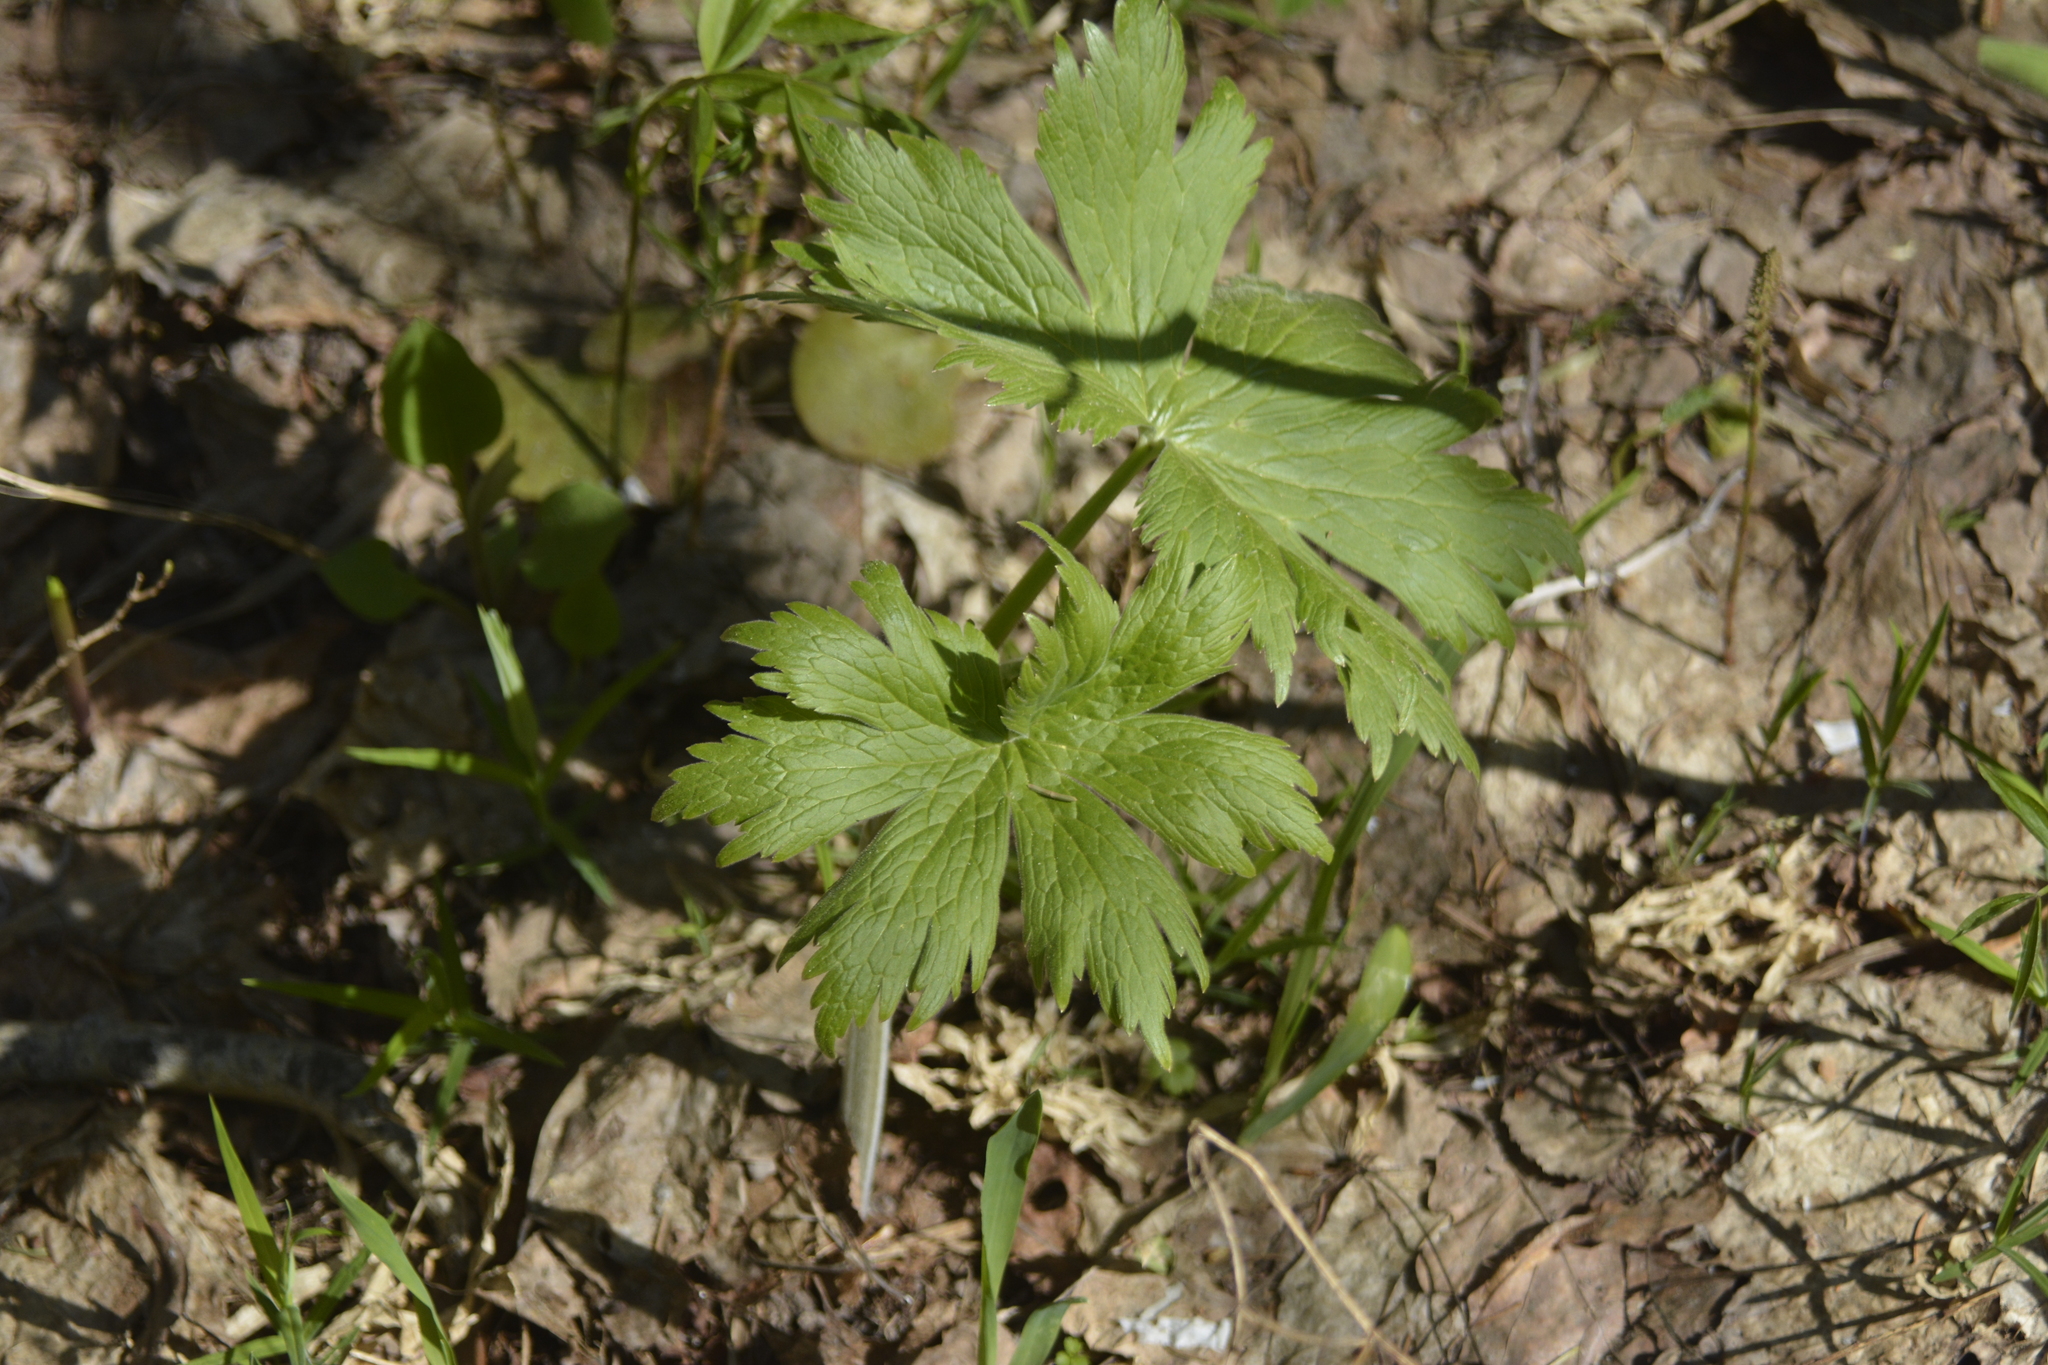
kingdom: Plantae
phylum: Tracheophyta
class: Magnoliopsida
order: Ranunculales
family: Ranunculaceae
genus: Aconitum
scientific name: Aconitum septentrionale
